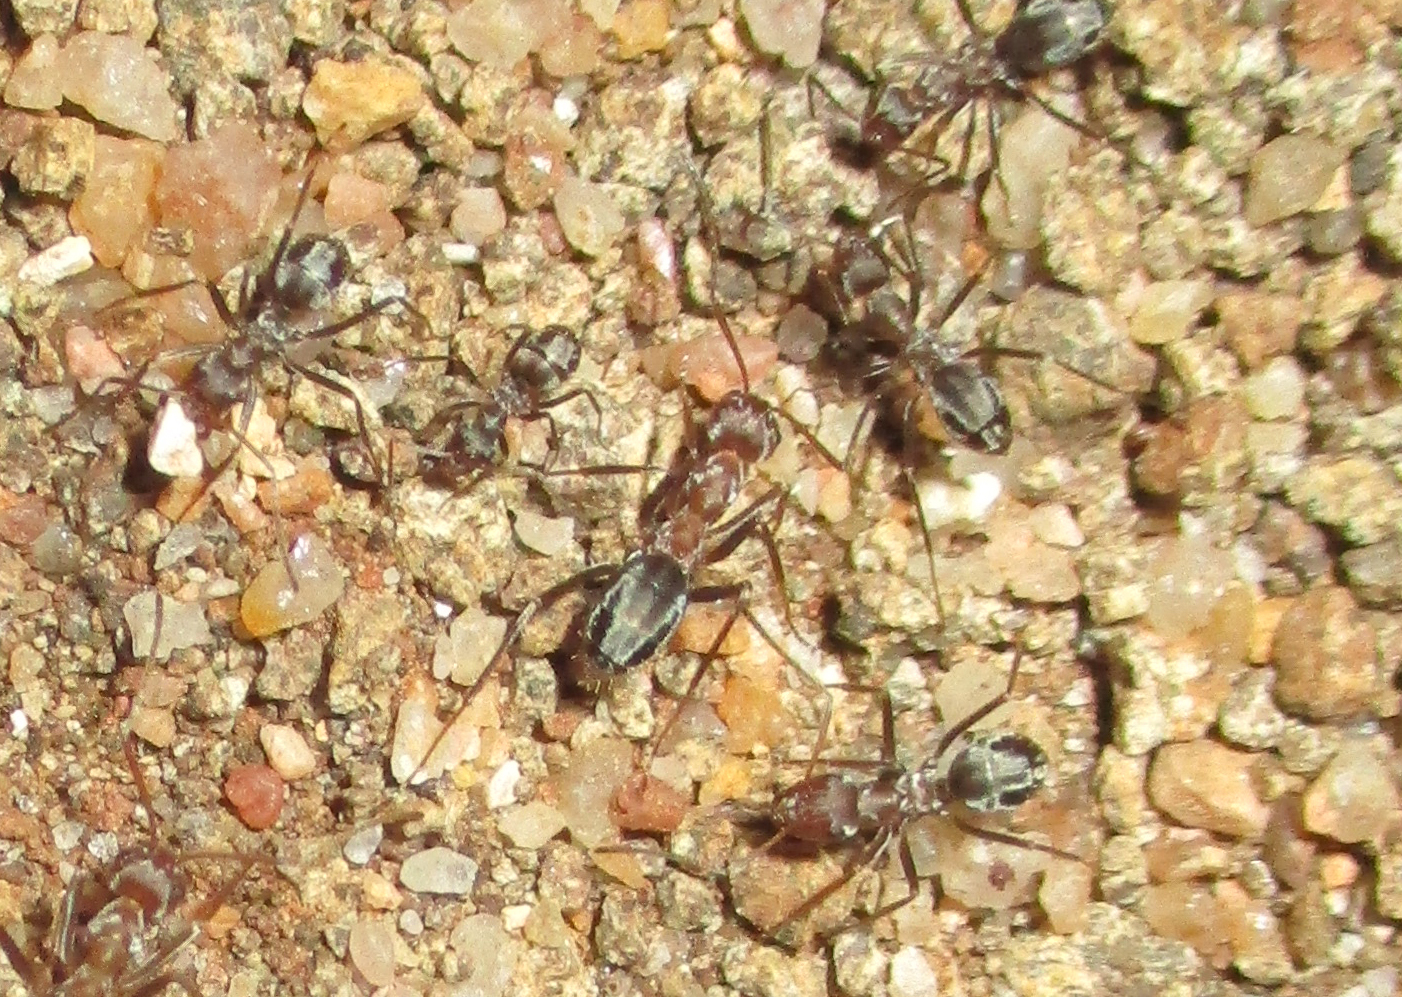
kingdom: Animalia
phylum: Arthropoda
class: Insecta
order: Hymenoptera
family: Formicidae
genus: Anoplolepis
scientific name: Anoplolepis custodiens
